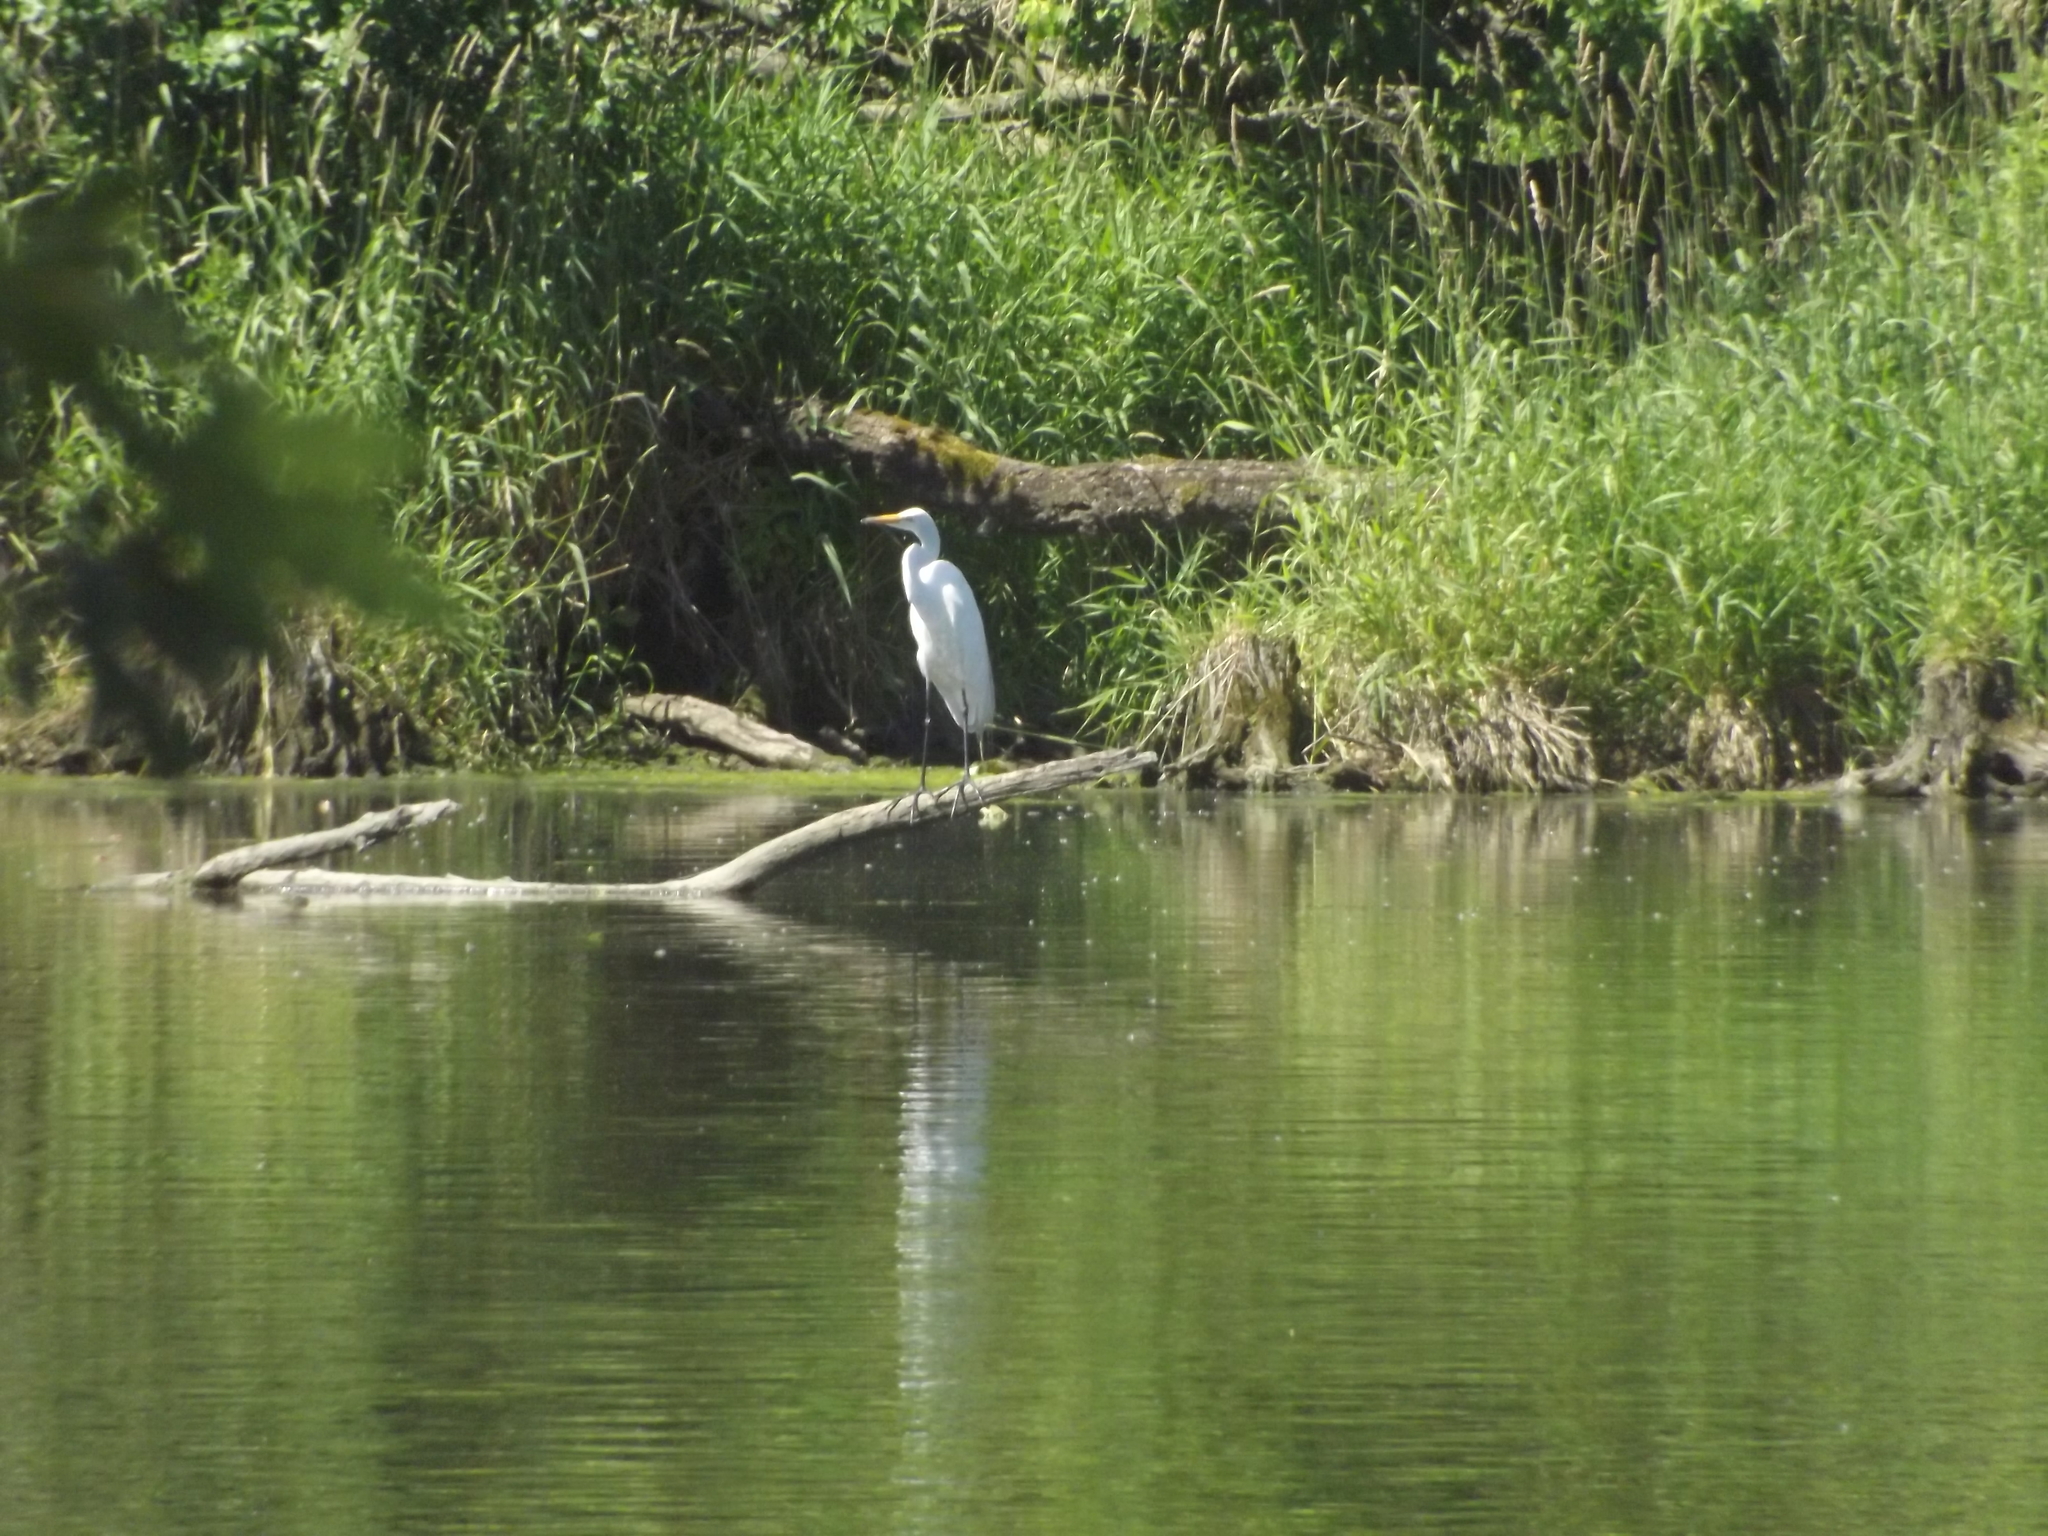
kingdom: Animalia
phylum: Chordata
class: Aves
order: Pelecaniformes
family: Ardeidae
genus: Ardea
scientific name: Ardea alba
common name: Great egret
